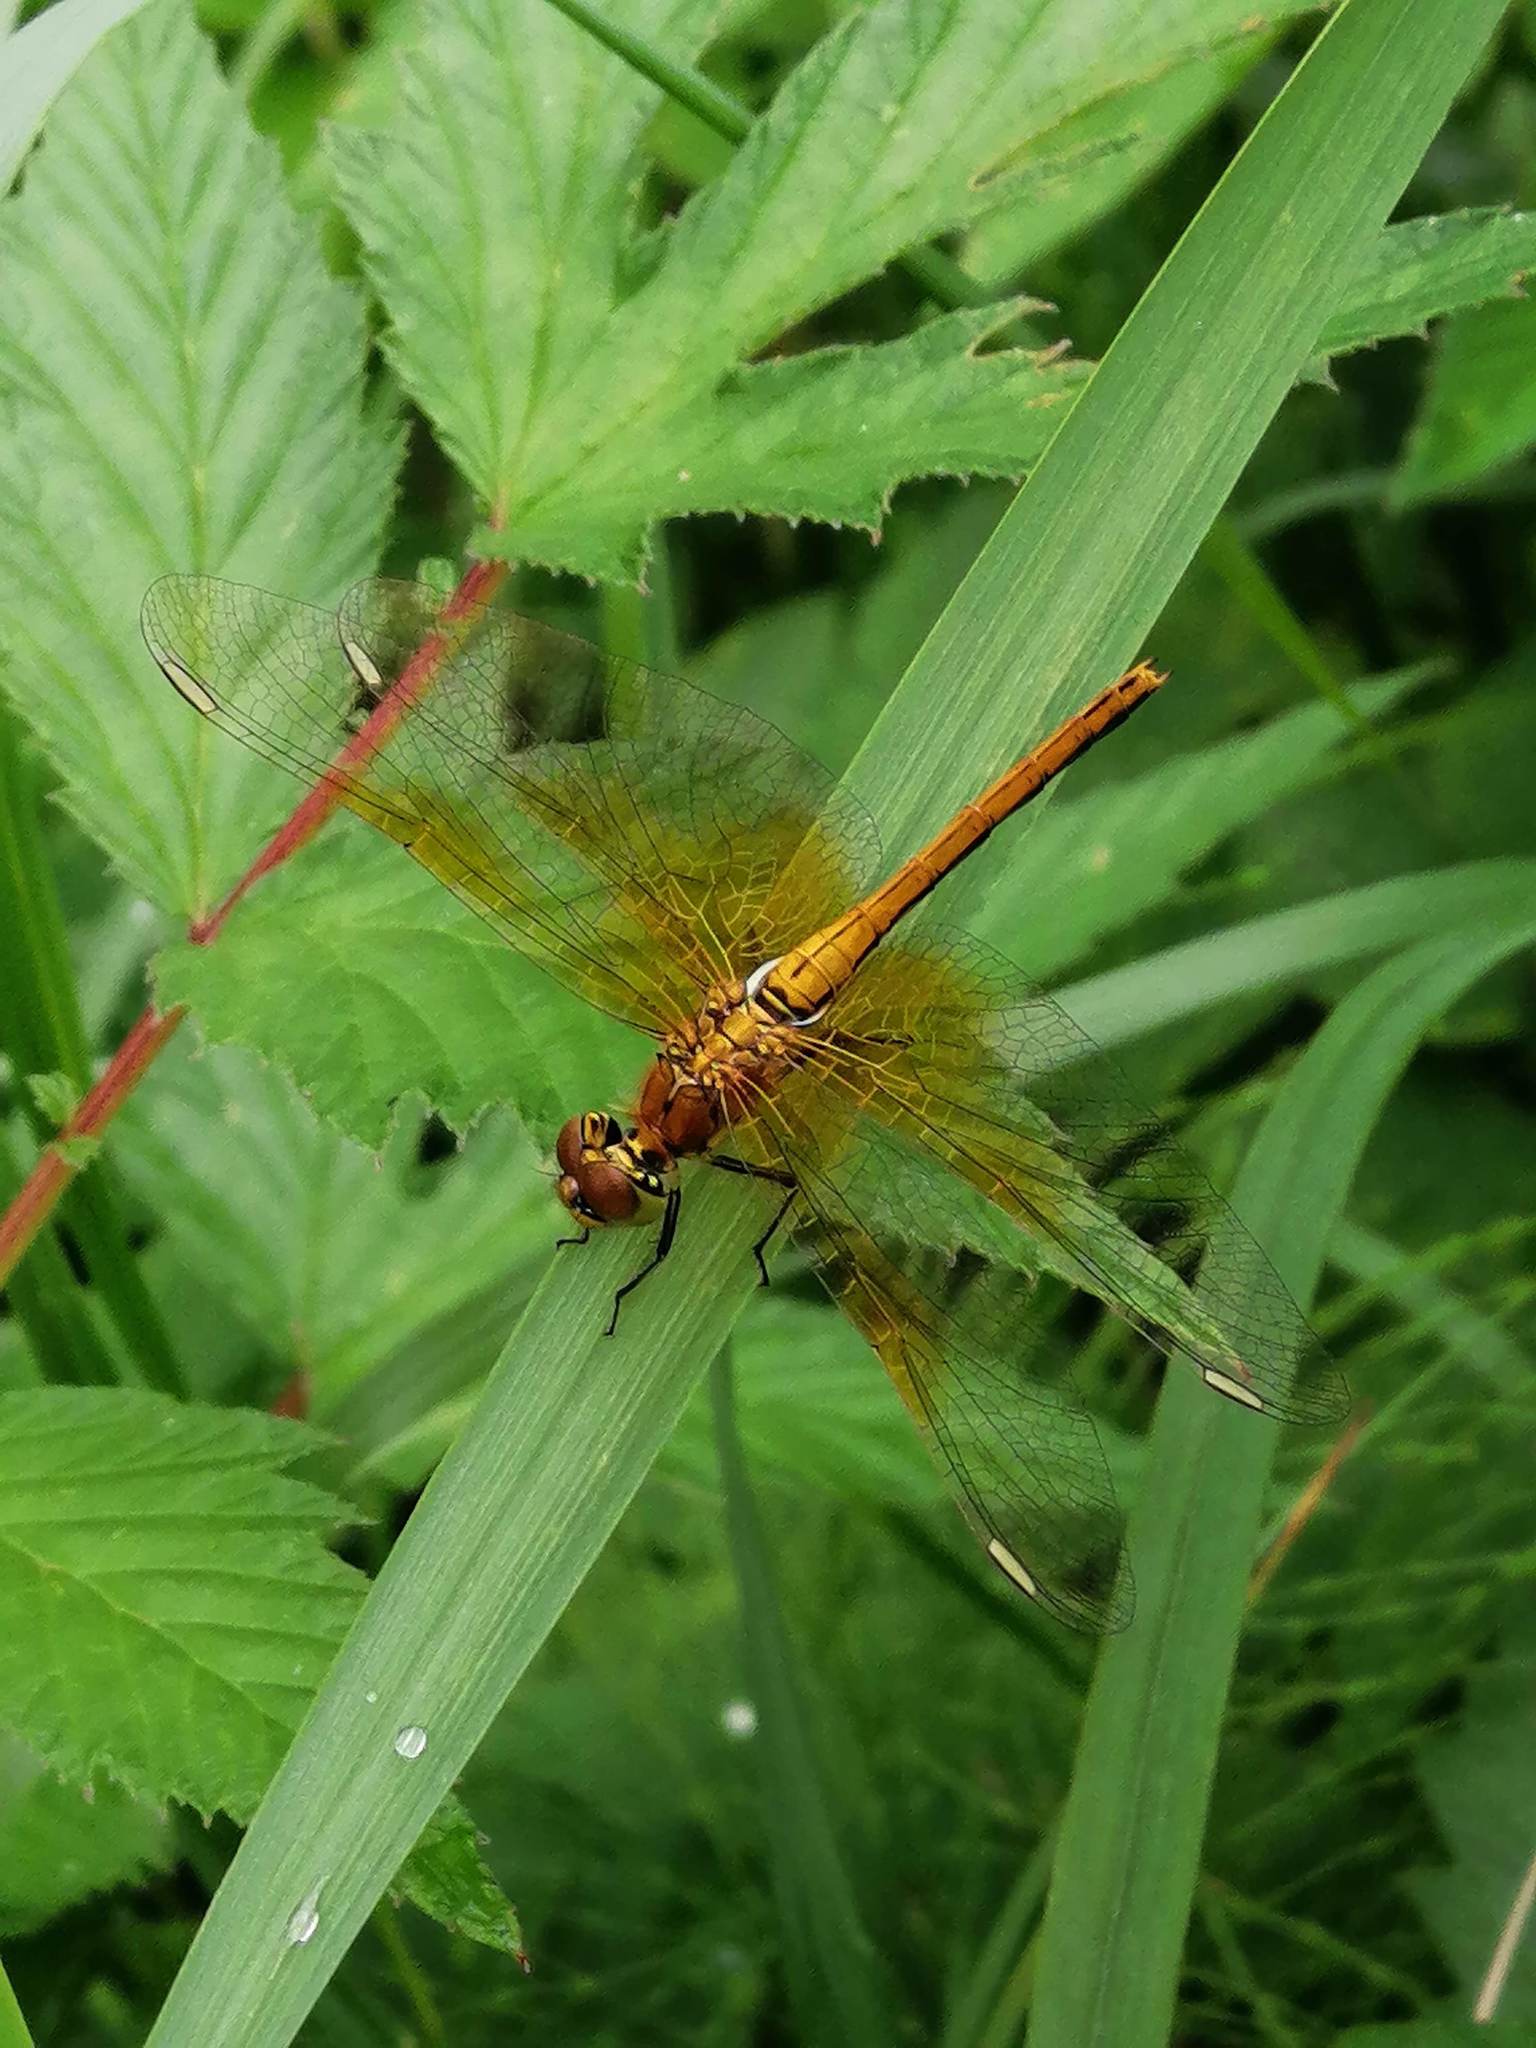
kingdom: Animalia
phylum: Arthropoda
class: Insecta
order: Odonata
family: Libellulidae
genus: Sympetrum
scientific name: Sympetrum flaveolum
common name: Yellow-winged darter
